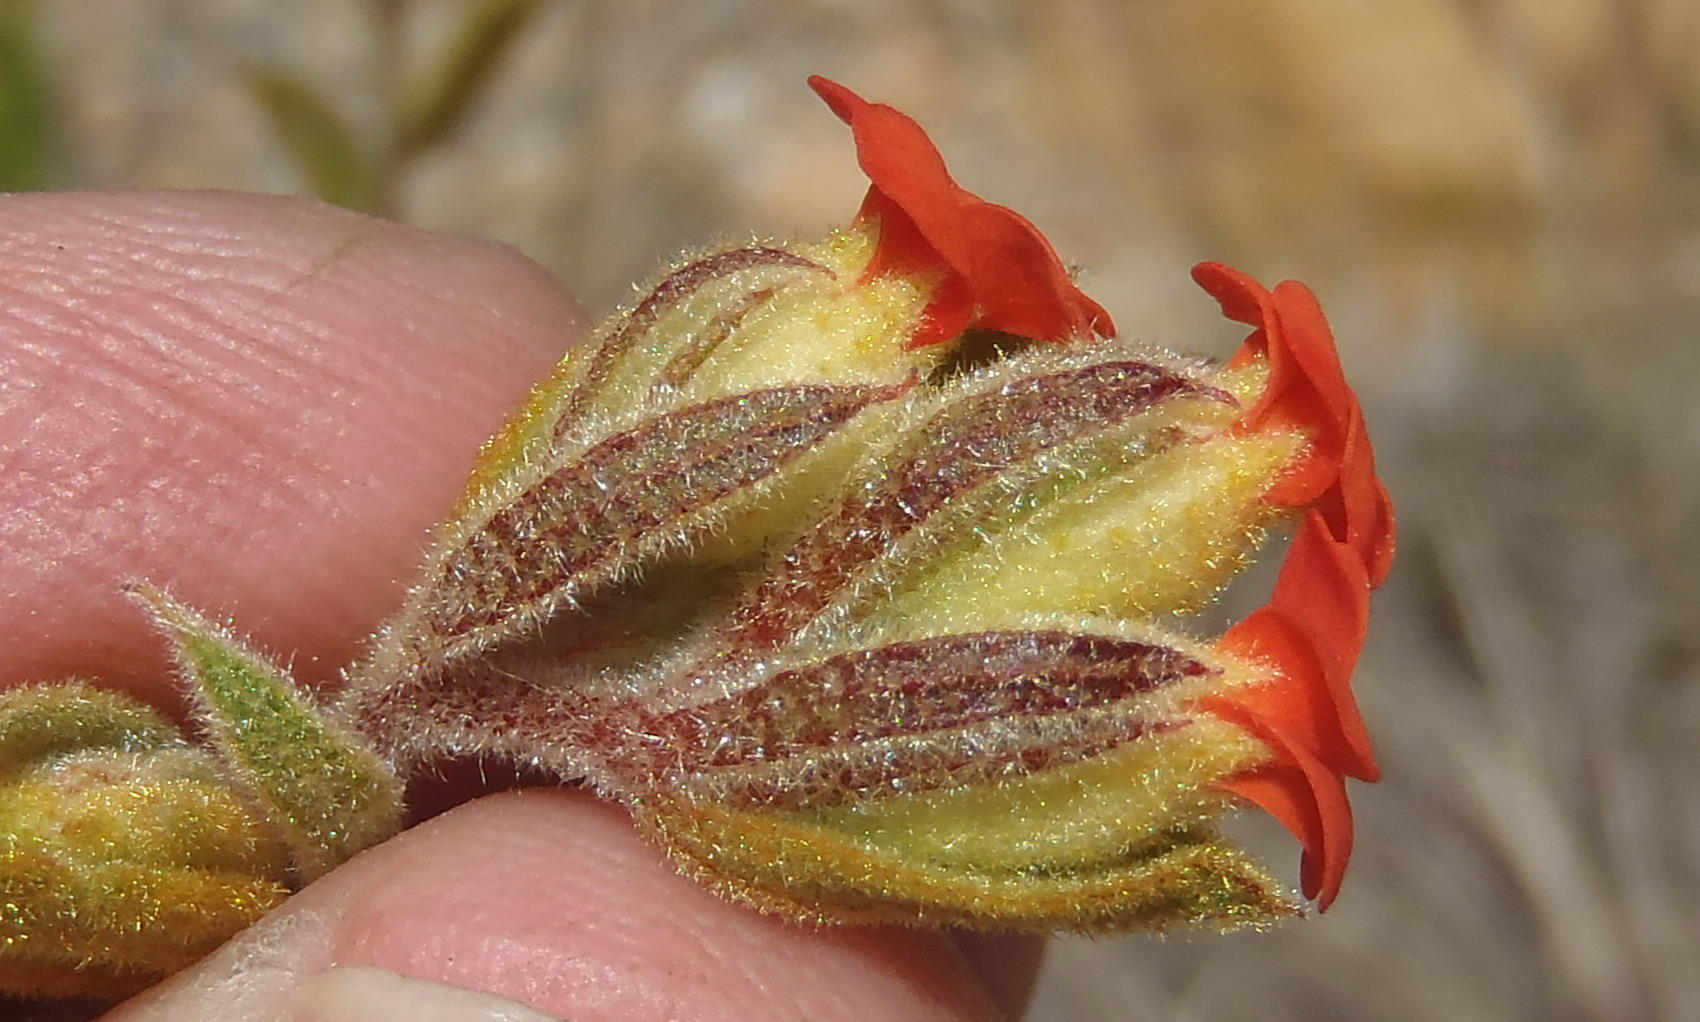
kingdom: Plantae
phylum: Tracheophyta
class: Magnoliopsida
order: Malvales
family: Malvaceae
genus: Hermannia
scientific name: Hermannia salviifolia
